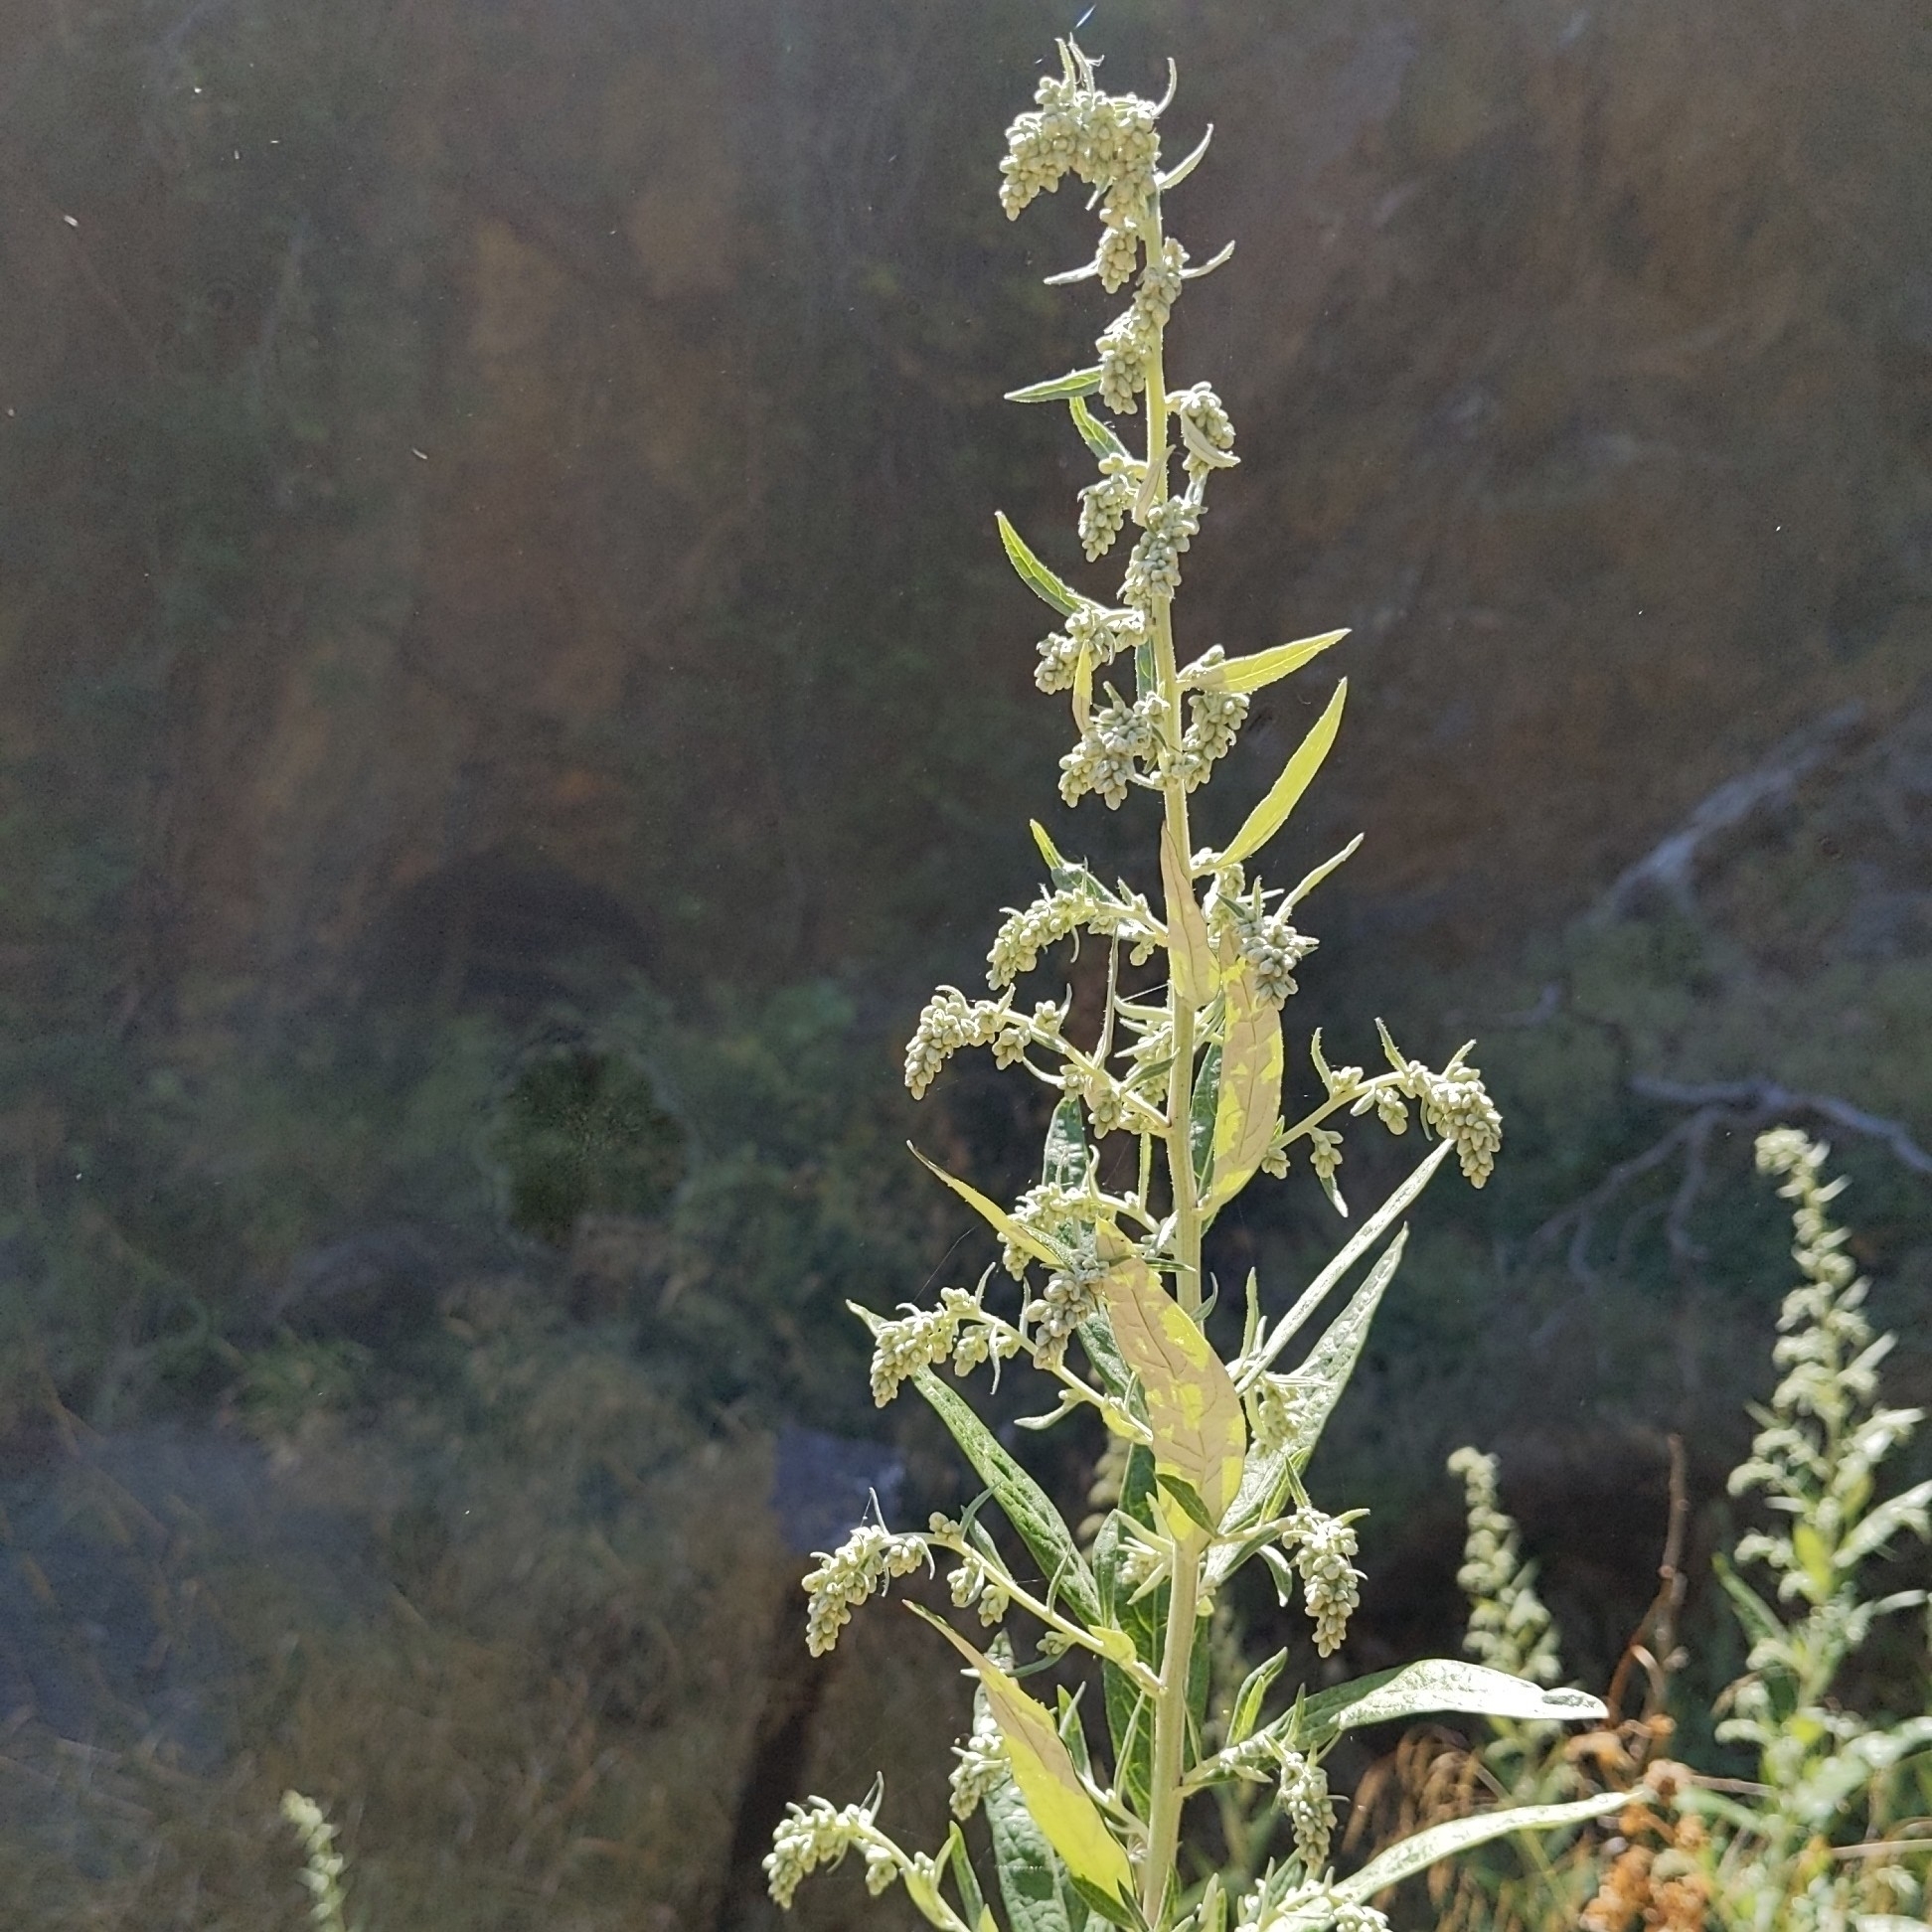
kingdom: Plantae
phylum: Tracheophyta
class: Magnoliopsida
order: Asterales
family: Asteraceae
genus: Artemisia
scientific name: Artemisia douglasiana
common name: Northwest mugwort
